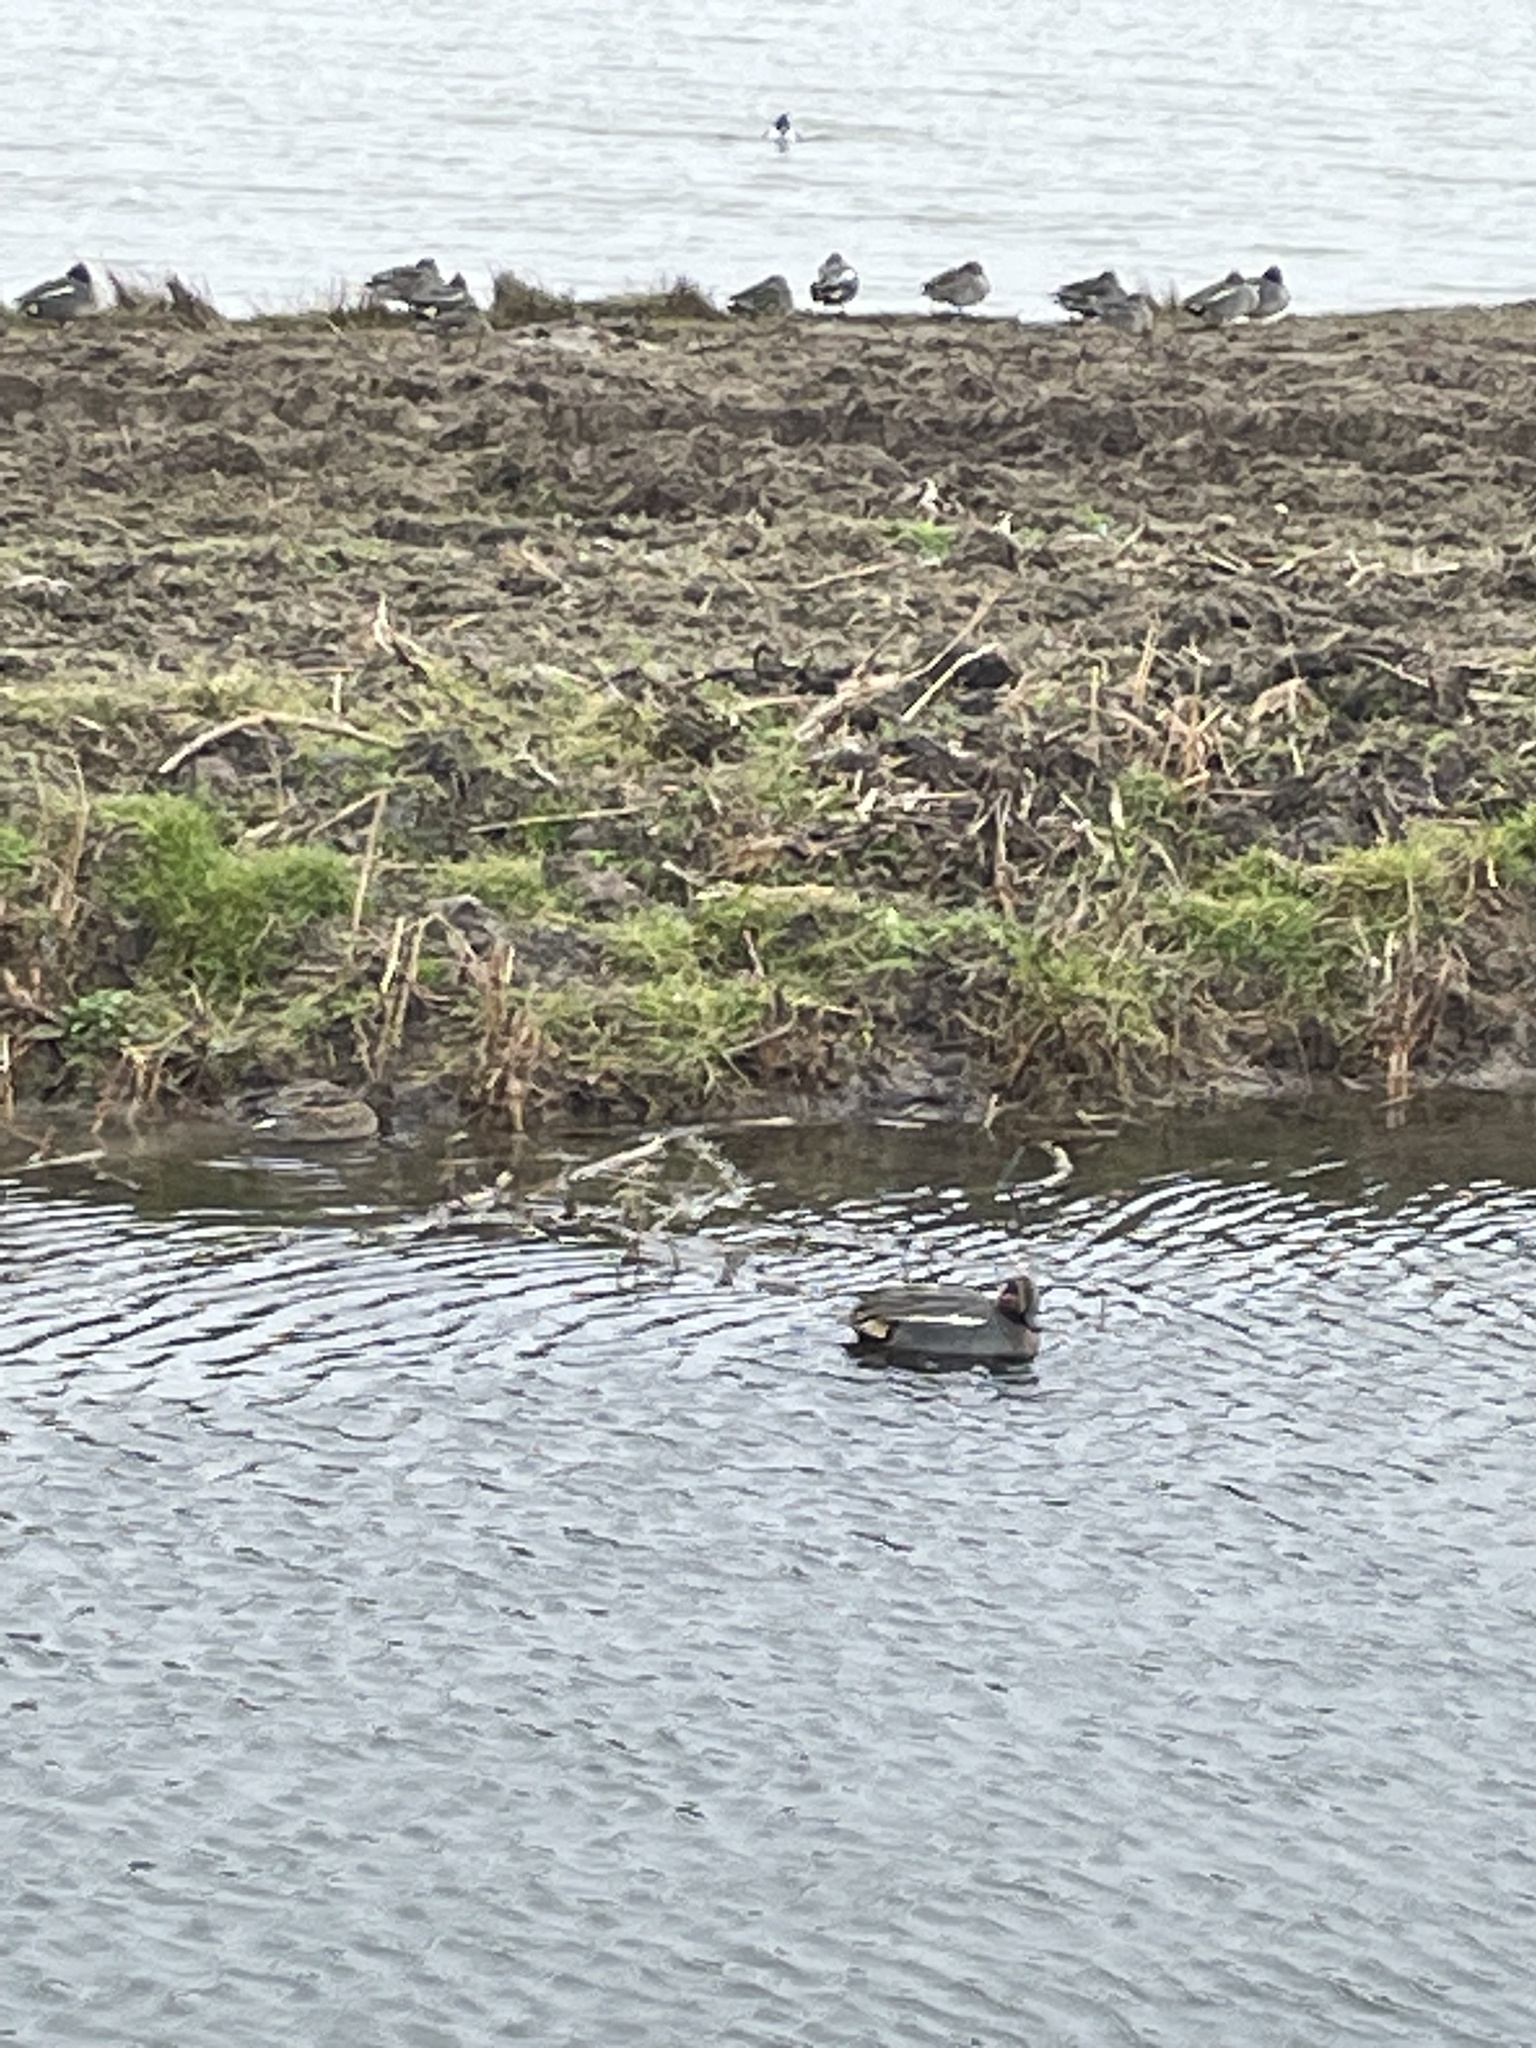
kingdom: Animalia
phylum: Chordata
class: Aves
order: Anseriformes
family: Anatidae
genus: Anas
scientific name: Anas crecca
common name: Eurasian teal
